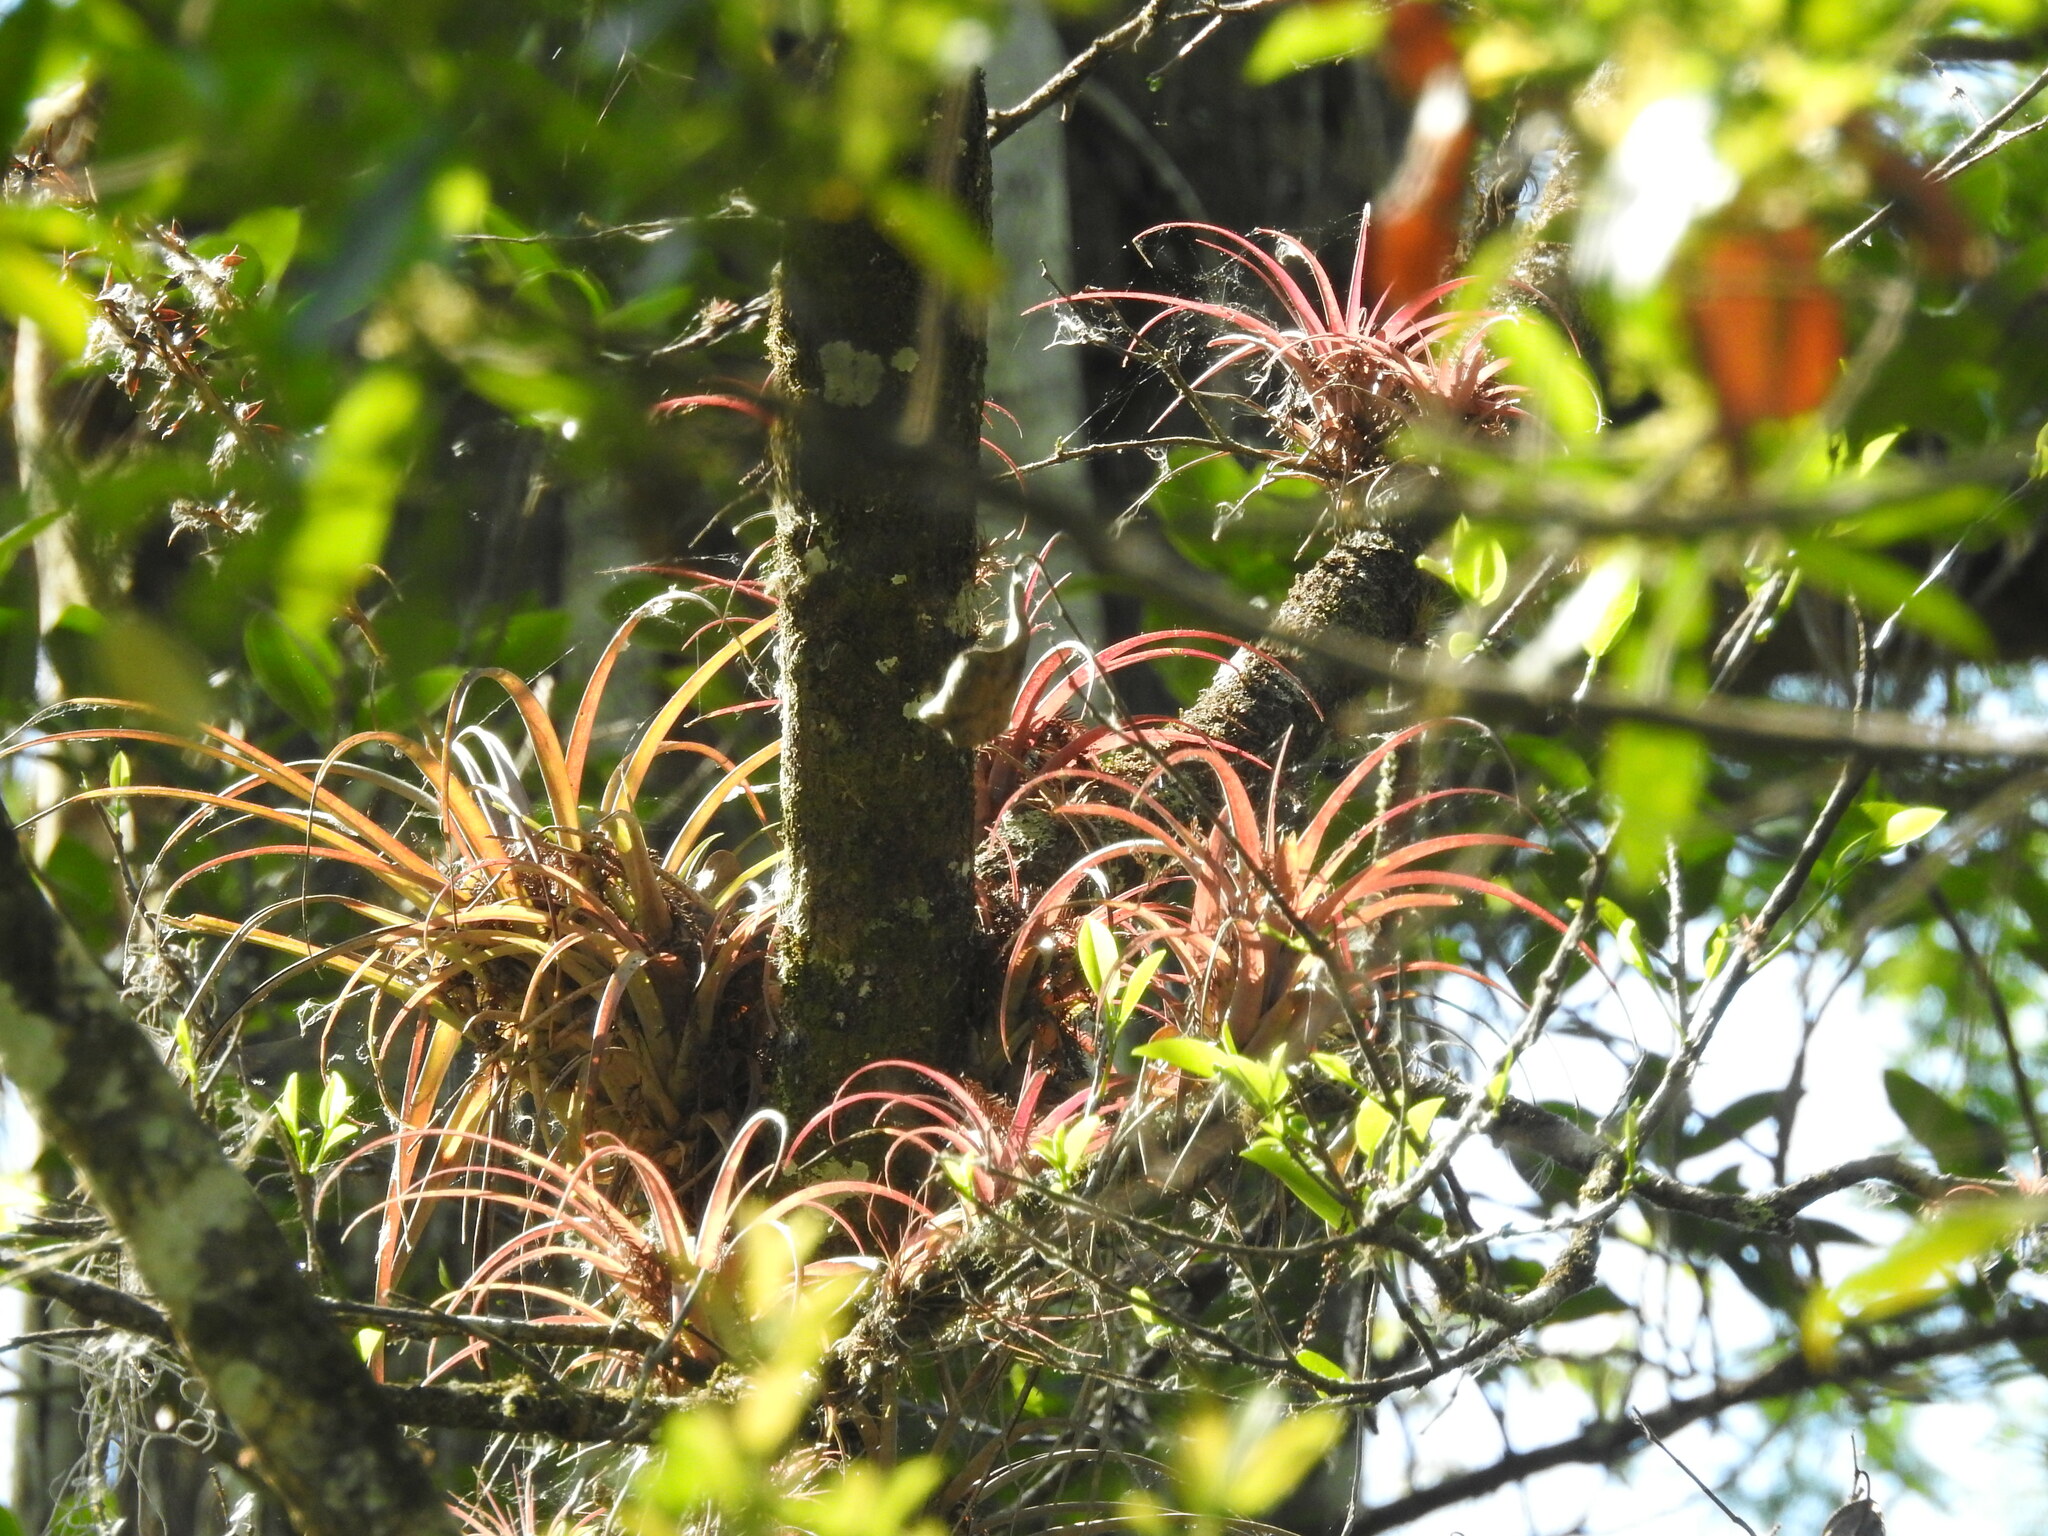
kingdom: Plantae
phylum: Tracheophyta
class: Liliopsida
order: Poales
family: Bromeliaceae
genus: Tillandsia
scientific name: Tillandsia variabilis
